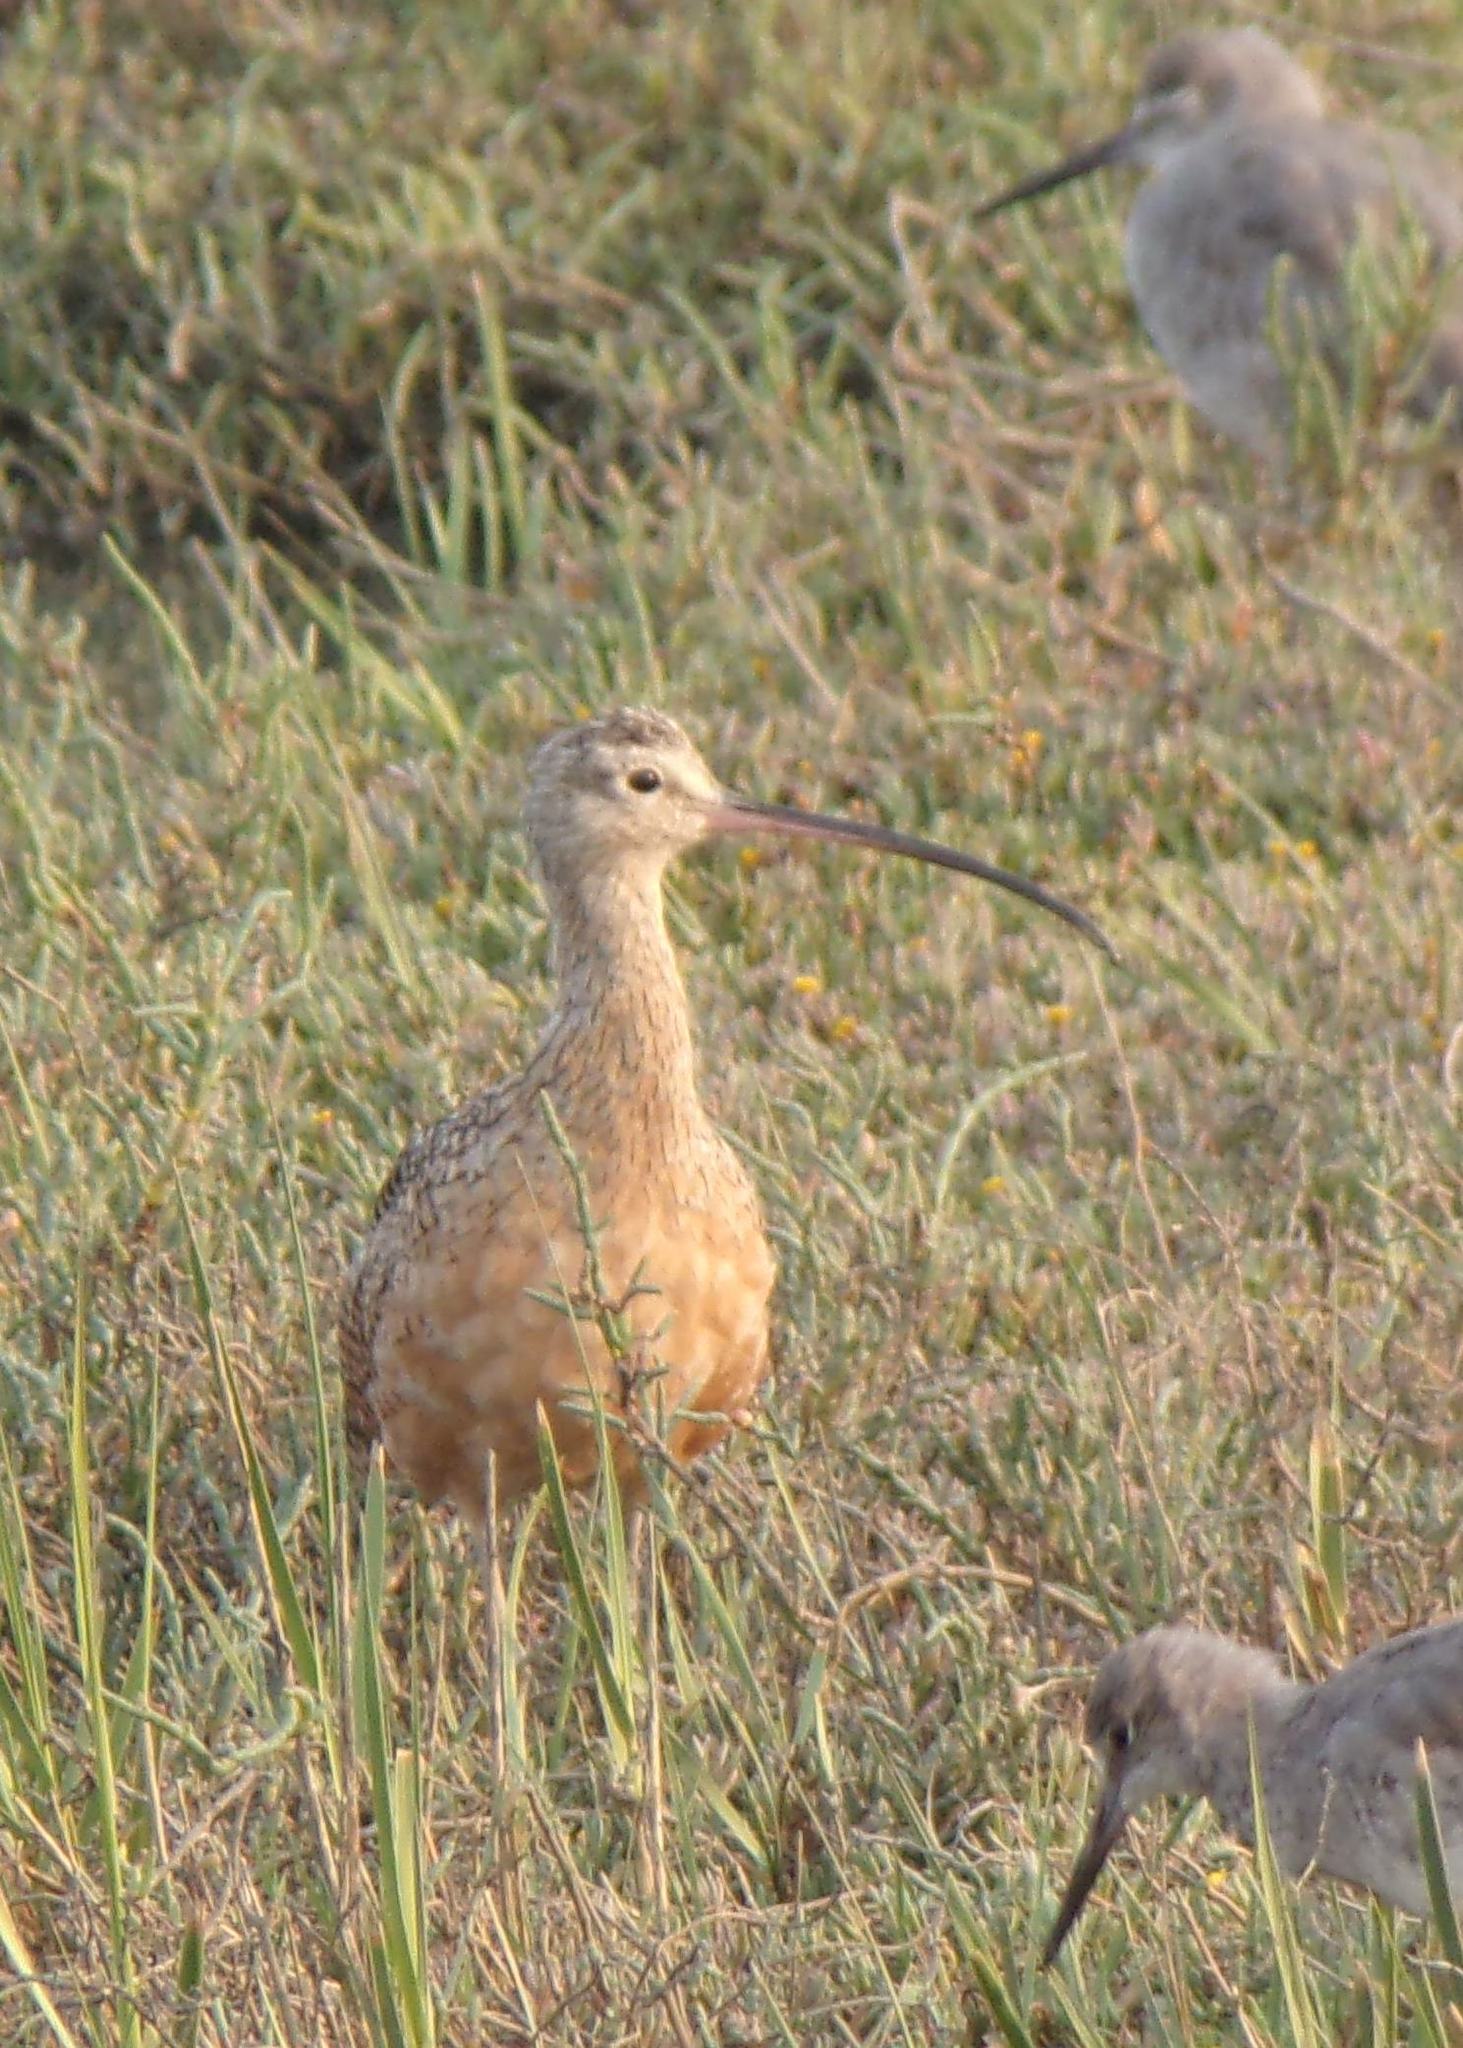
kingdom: Animalia
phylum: Chordata
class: Aves
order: Charadriiformes
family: Scolopacidae
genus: Numenius
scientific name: Numenius americanus
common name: Long-billed curlew
